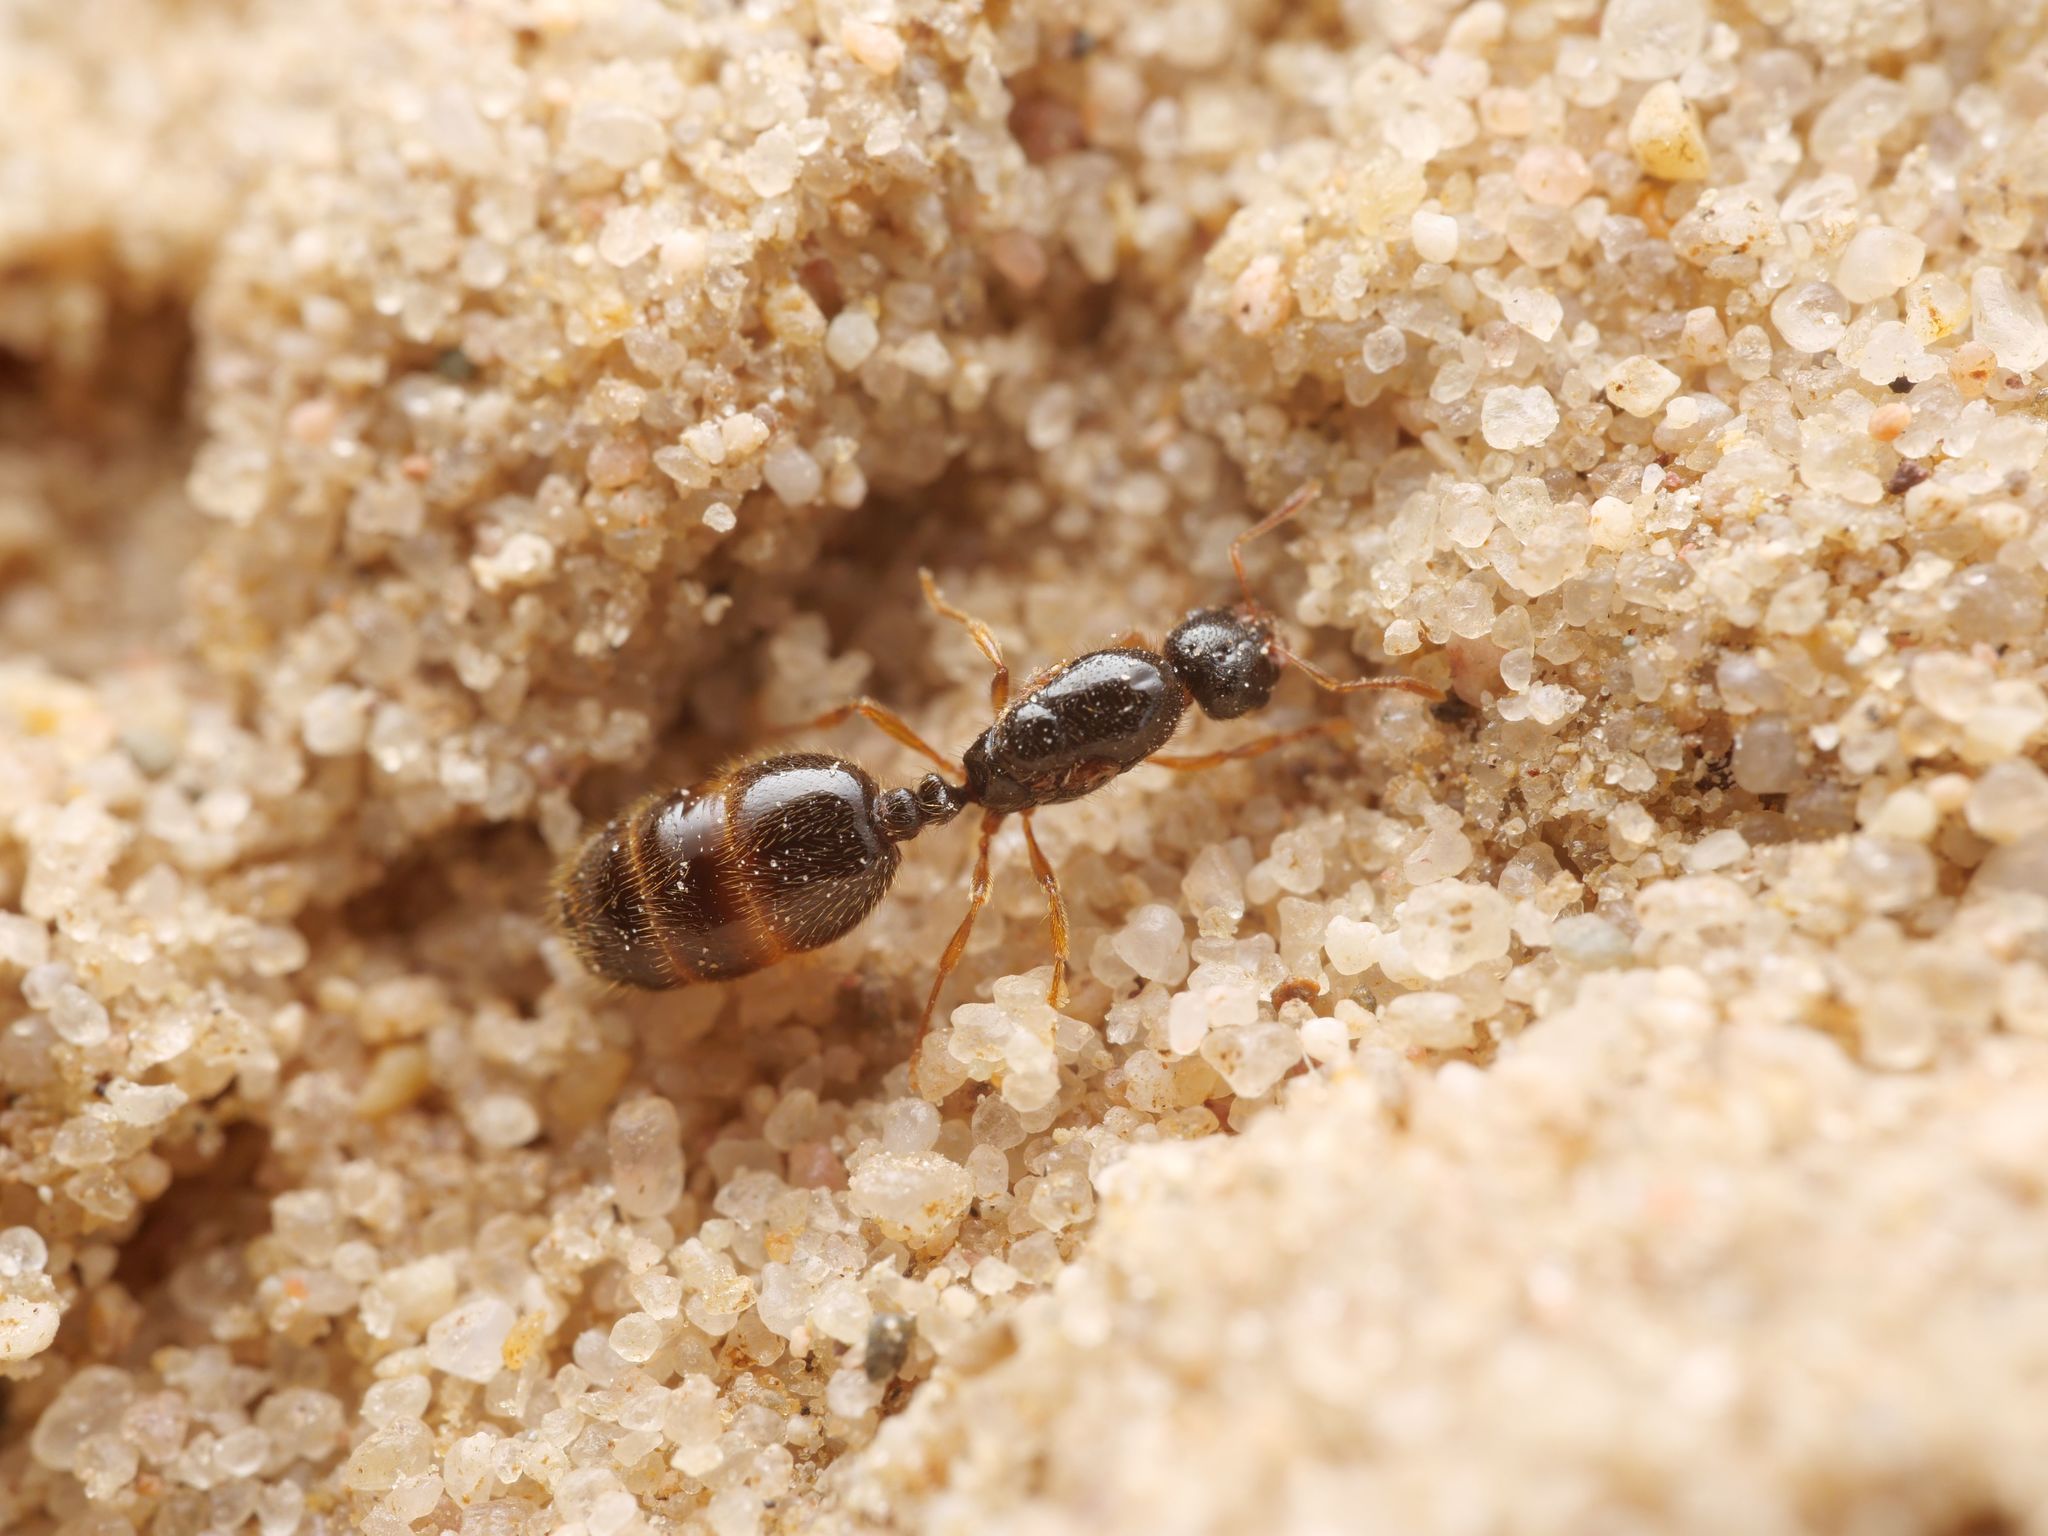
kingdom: Animalia
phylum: Arthropoda
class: Insecta
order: Hymenoptera
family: Formicidae
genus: Solenopsis
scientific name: Solenopsis fugax
